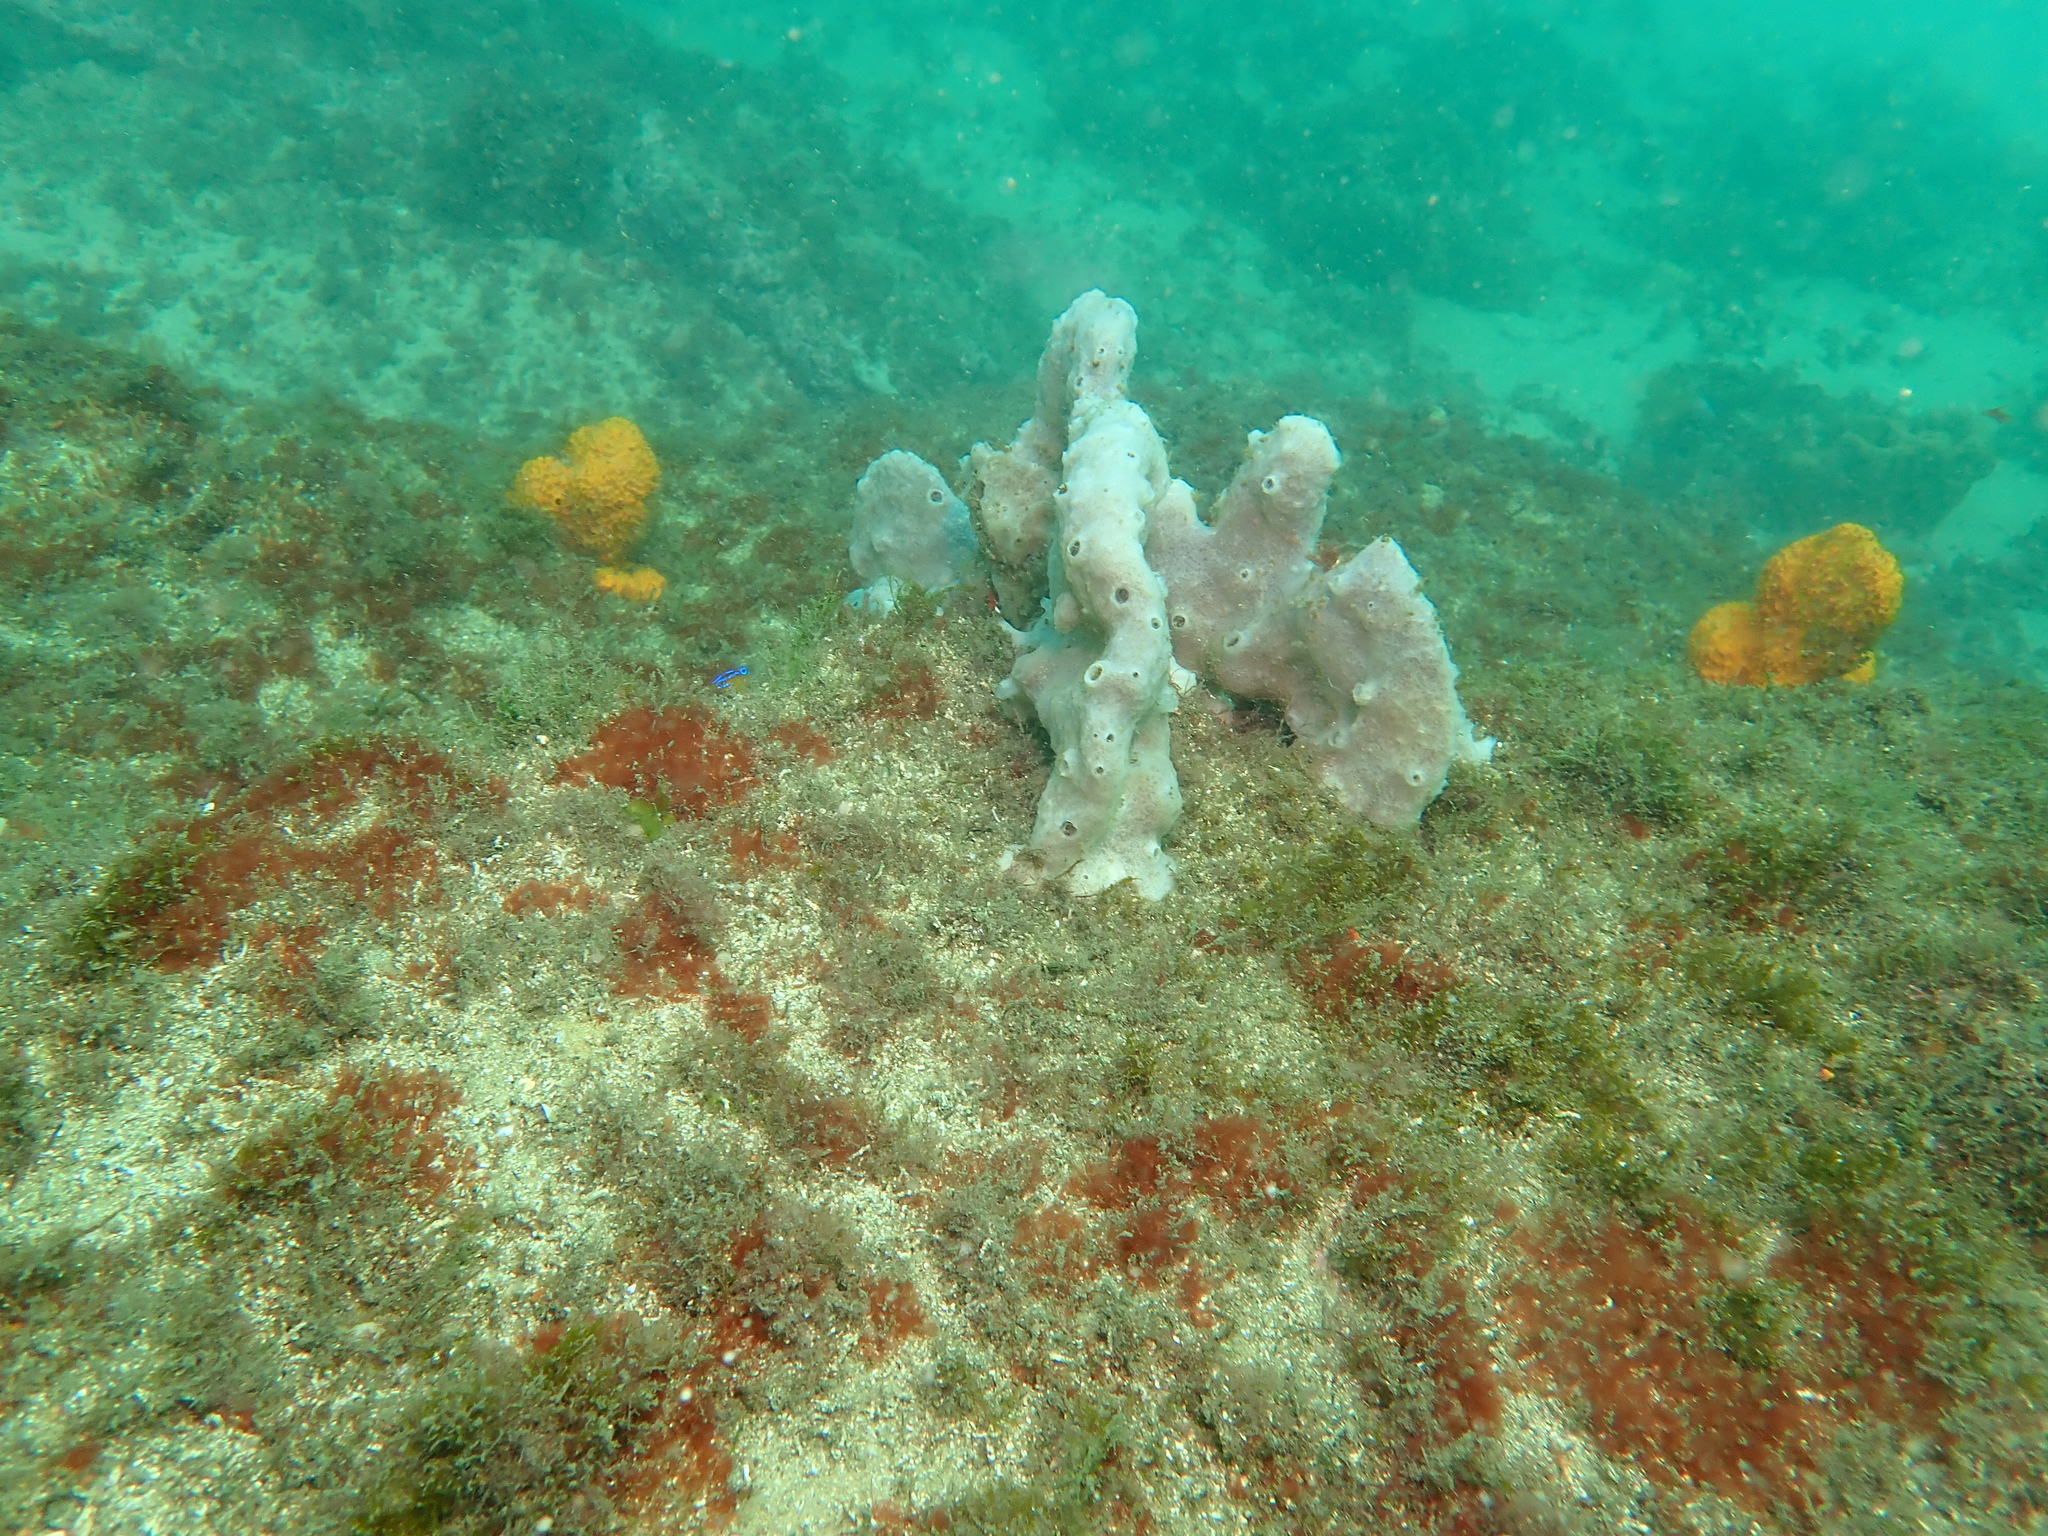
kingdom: Animalia
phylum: Porifera
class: Demospongiae
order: Haplosclerida
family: Callyspongiidae
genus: Callyspongia
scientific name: Callyspongia manus
